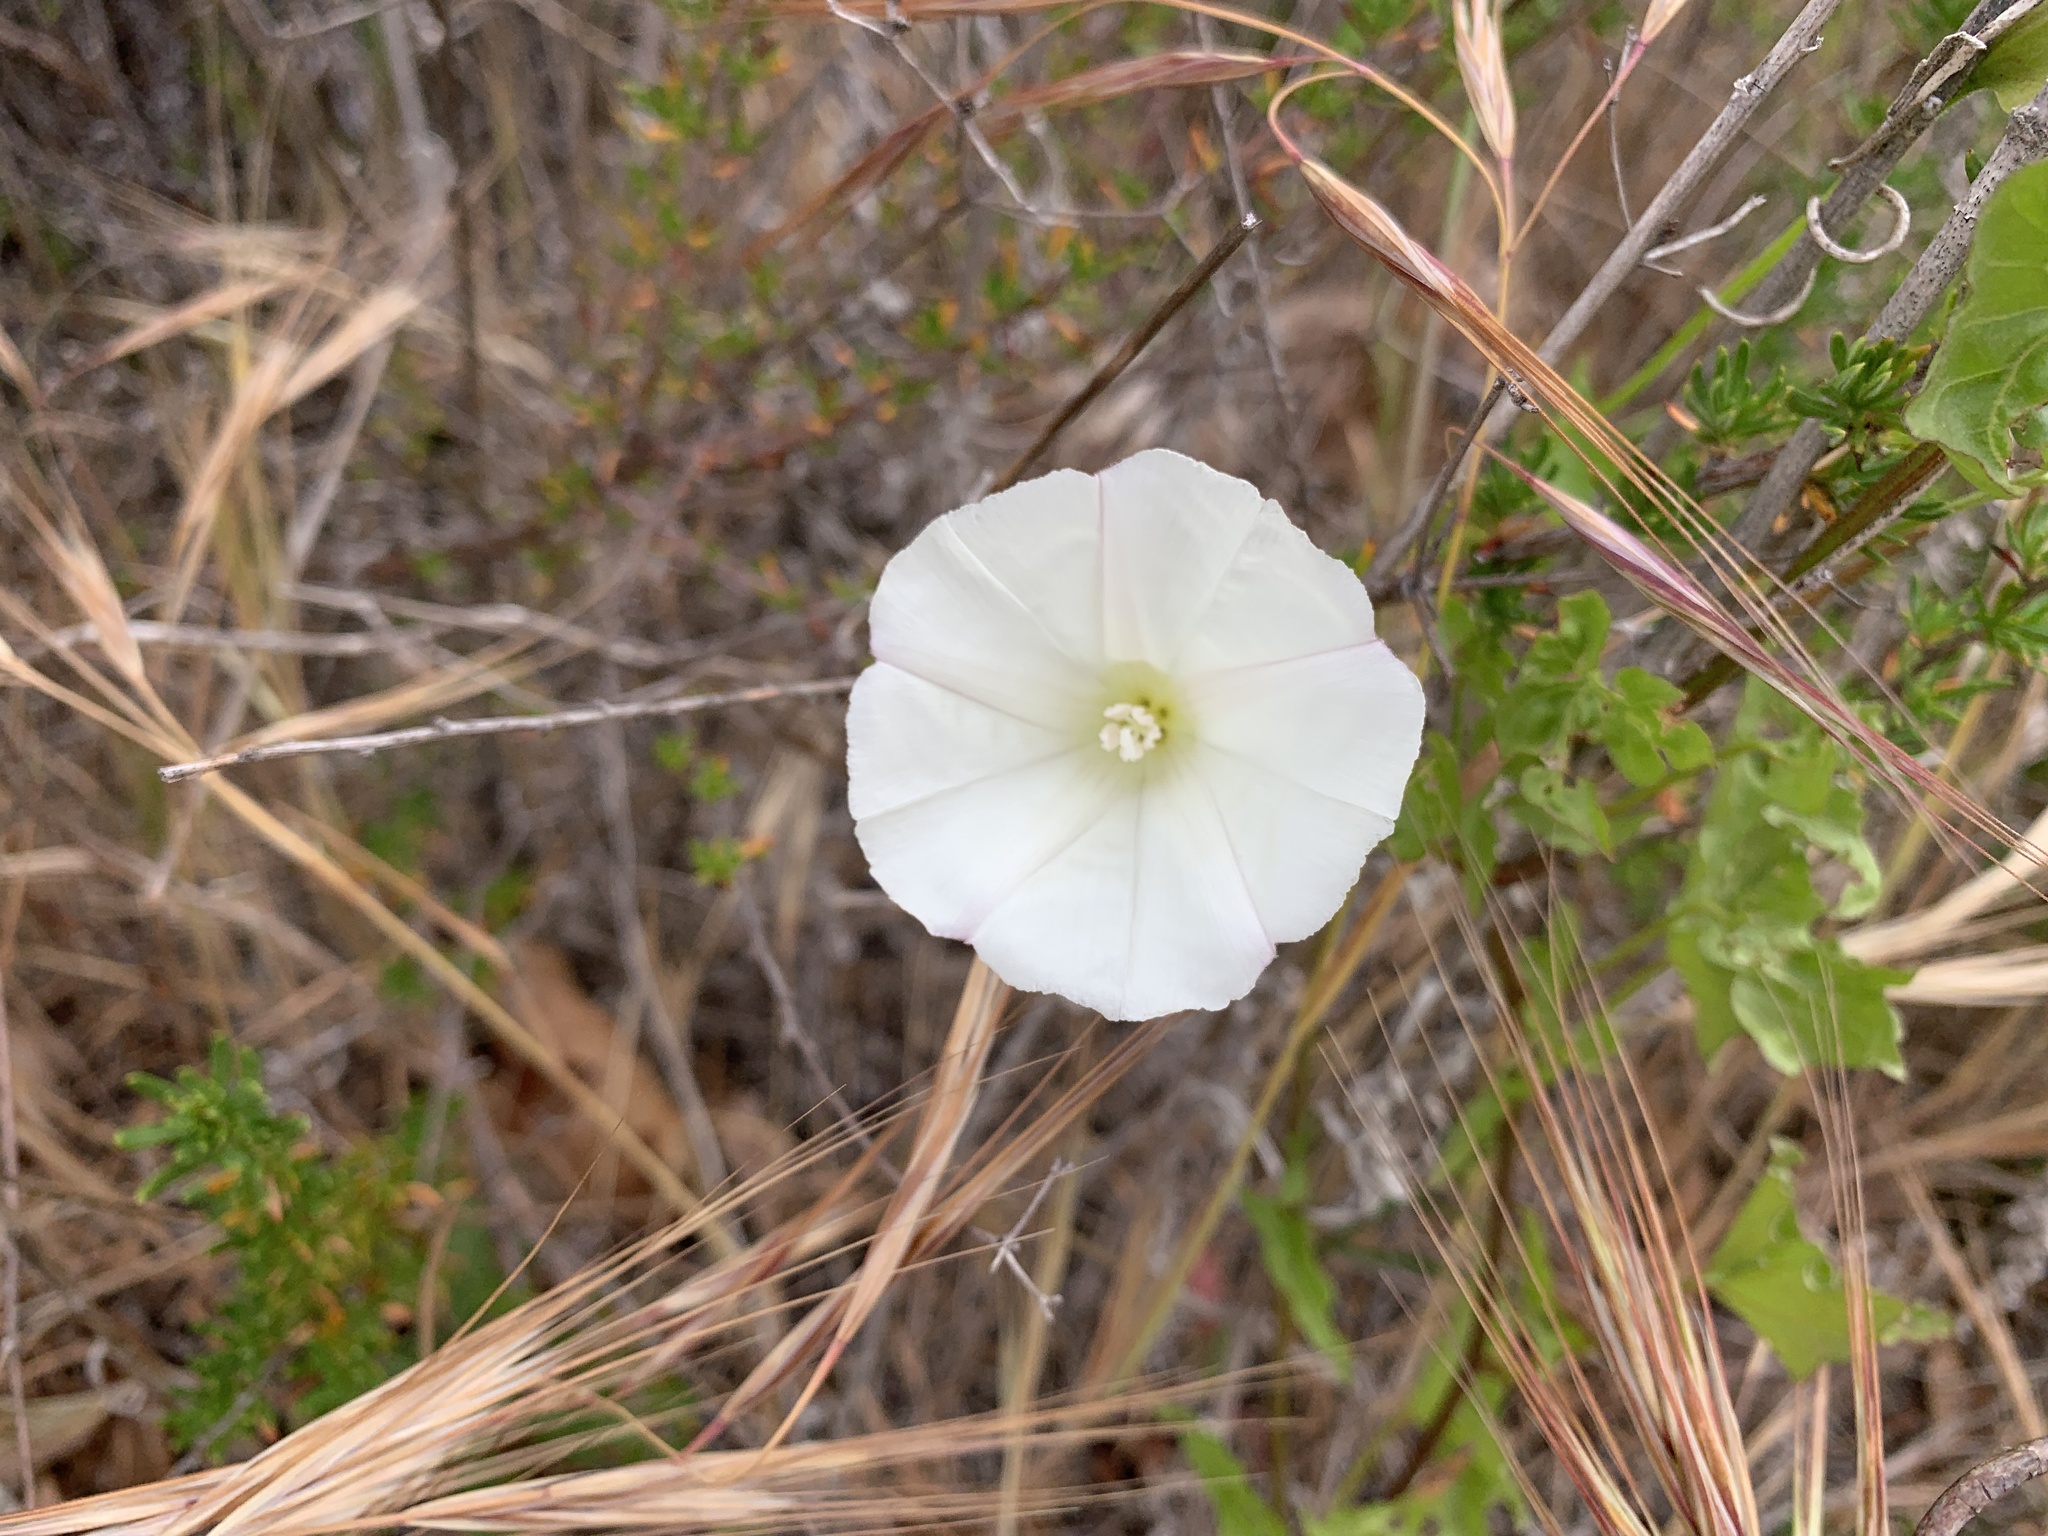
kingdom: Plantae
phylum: Tracheophyta
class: Magnoliopsida
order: Solanales
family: Convolvulaceae
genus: Calystegia
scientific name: Calystegia macrostegia
